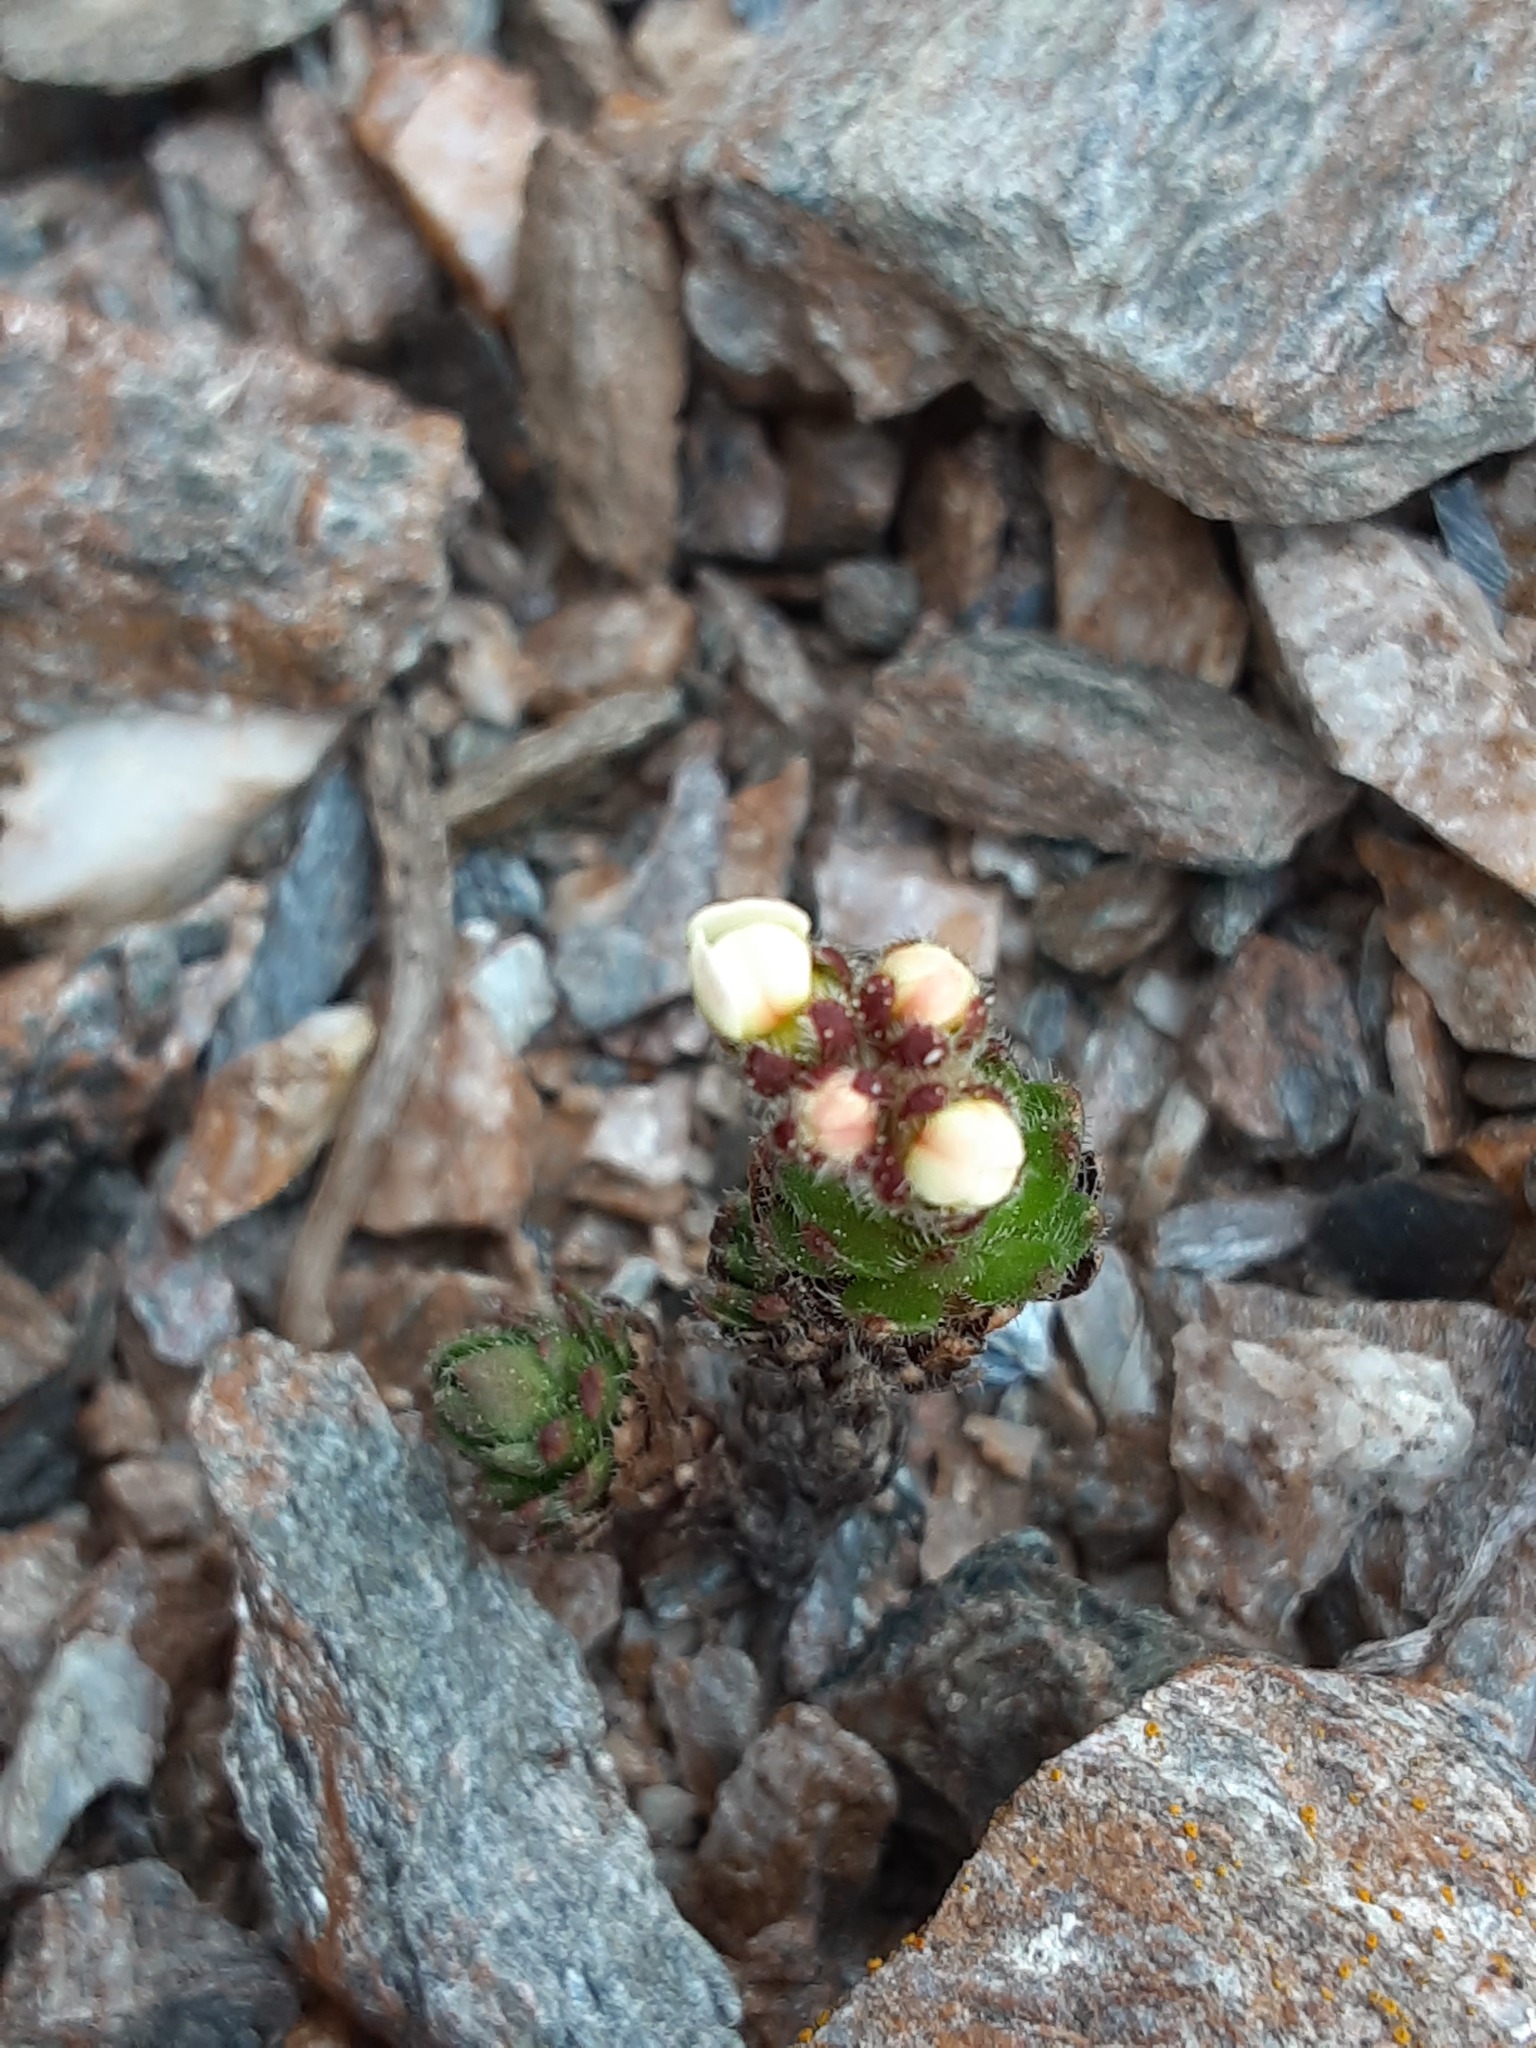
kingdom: Plantae
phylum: Tracheophyta
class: Magnoliopsida
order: Ericales
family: Primulaceae
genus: Androsace
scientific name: Androsace chamaejasme
